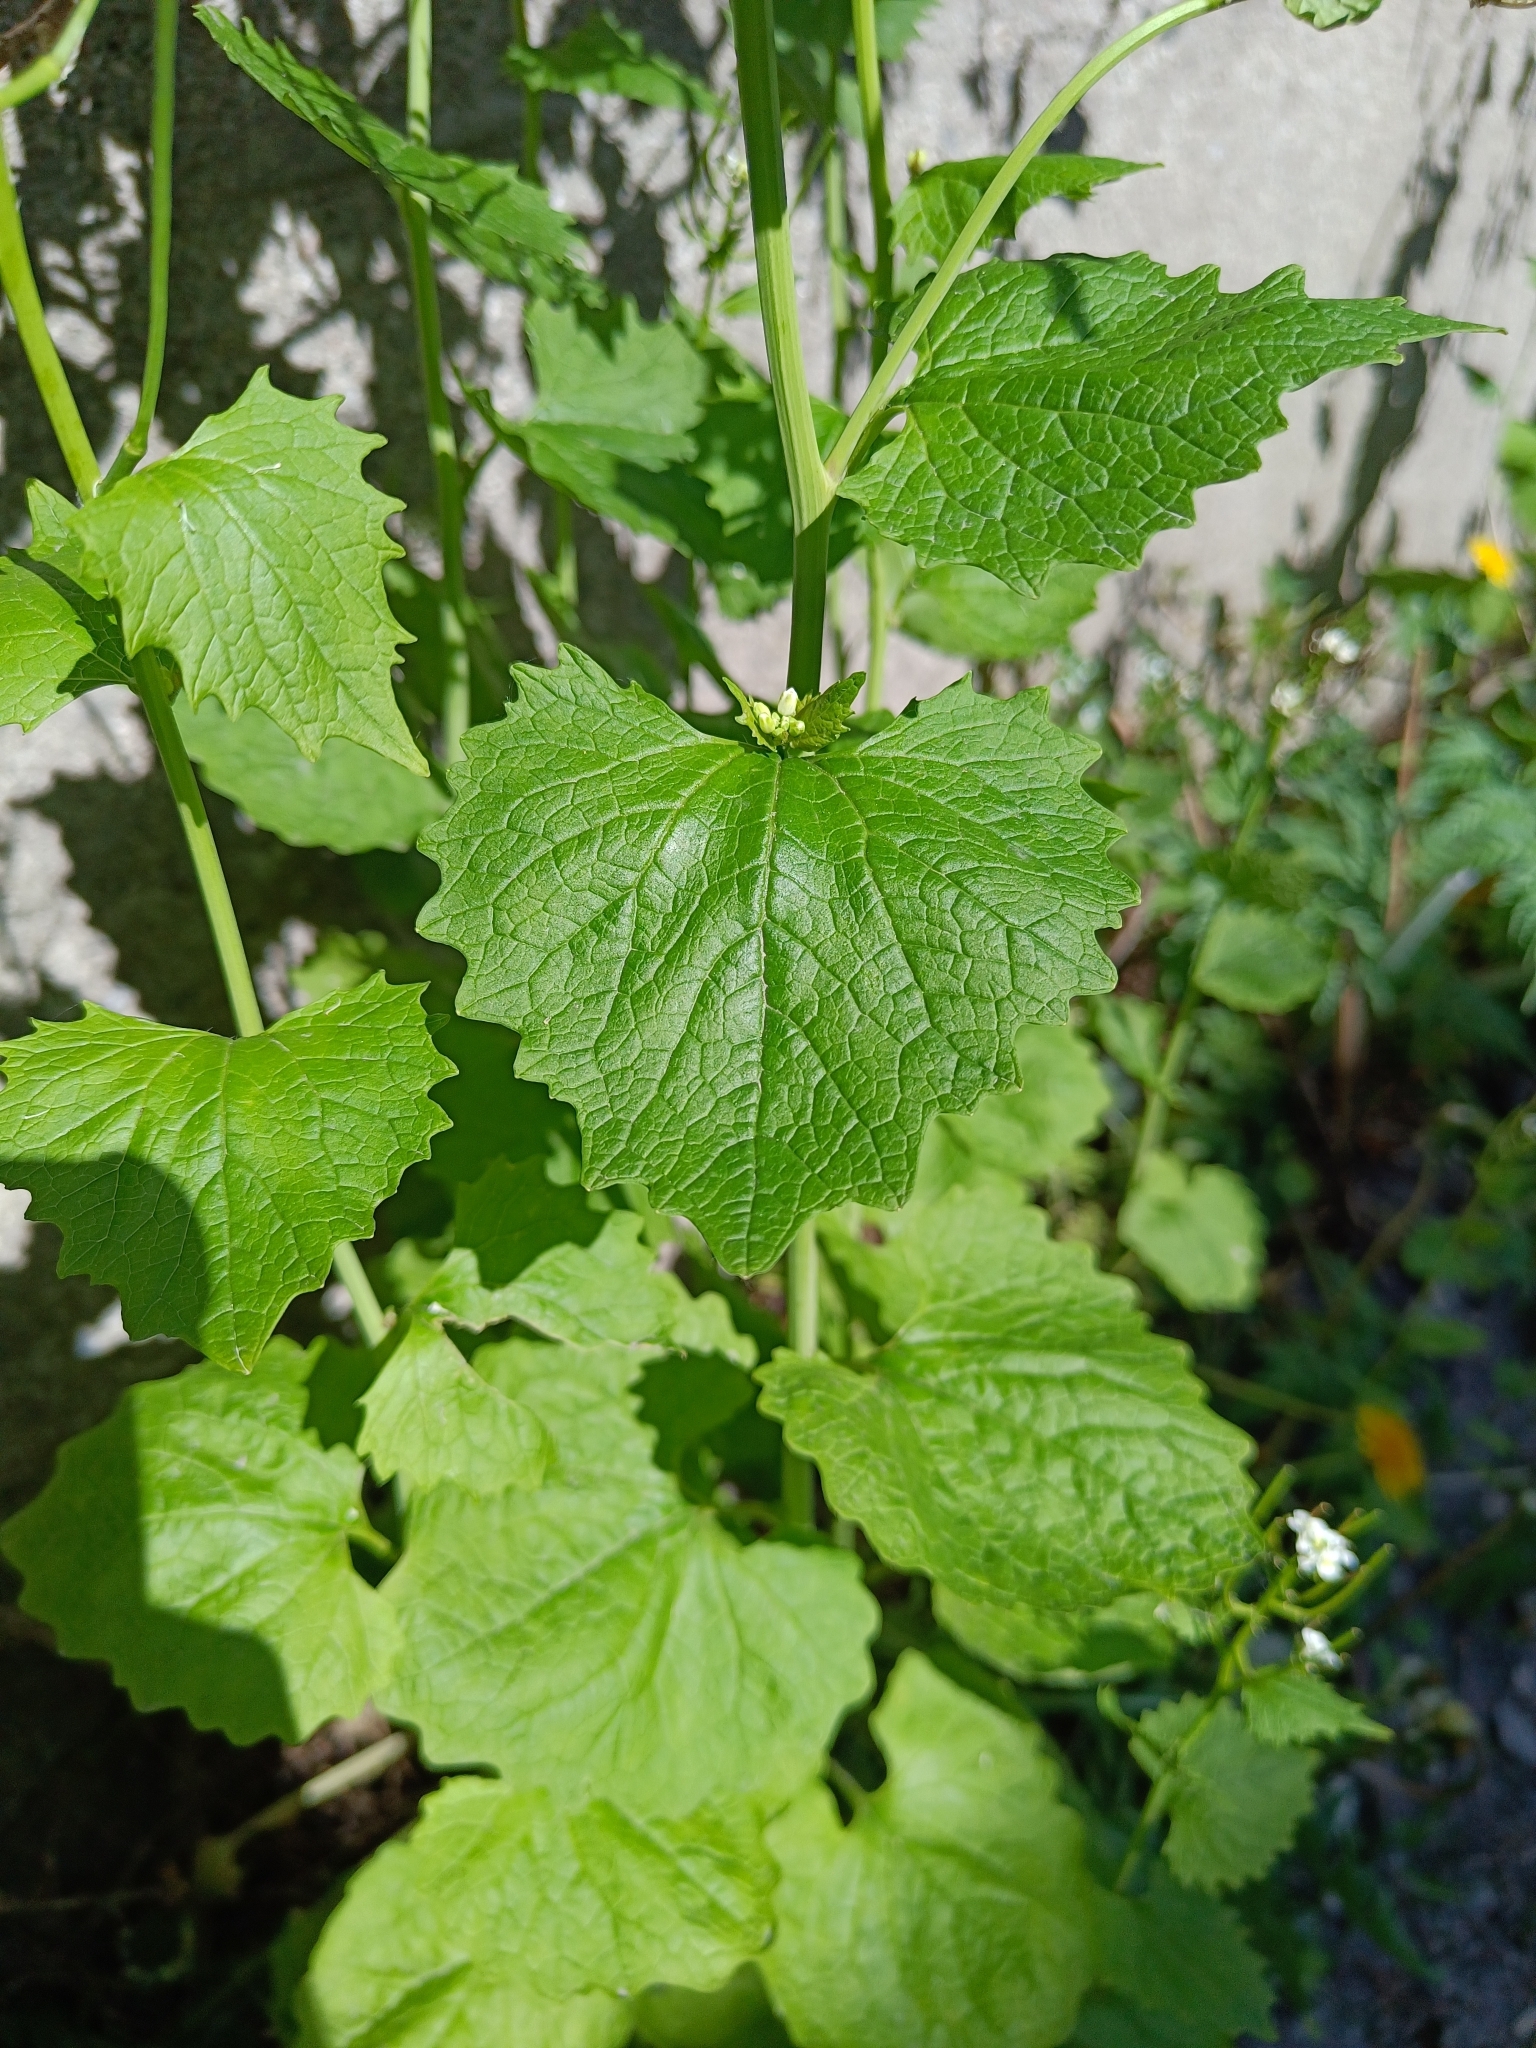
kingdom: Plantae
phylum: Tracheophyta
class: Magnoliopsida
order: Brassicales
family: Brassicaceae
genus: Alliaria
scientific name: Alliaria petiolata
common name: Garlic mustard
